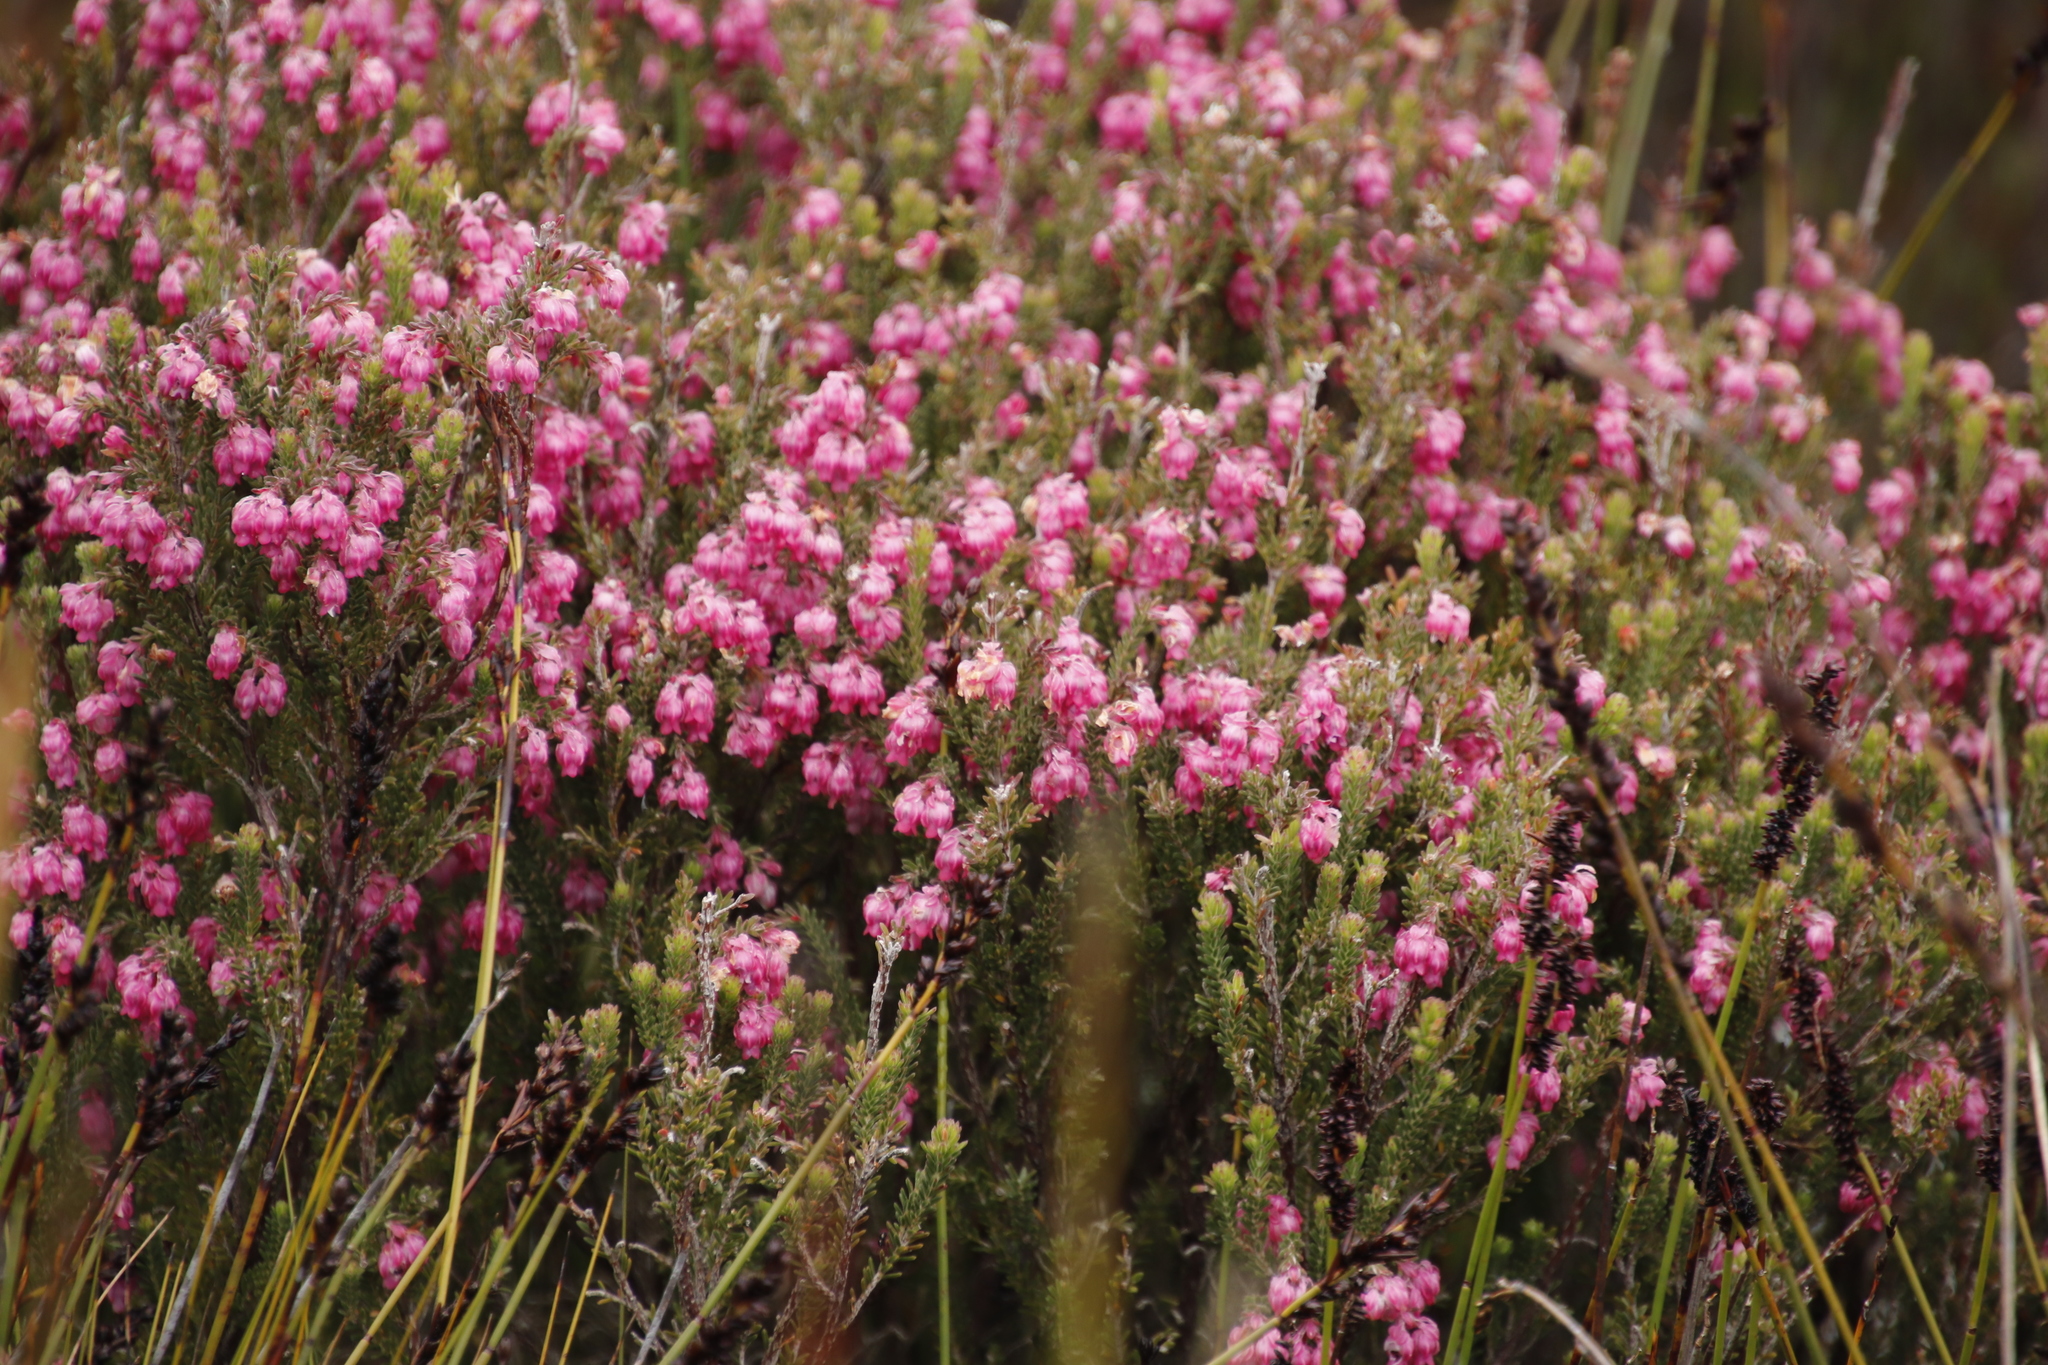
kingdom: Plantae
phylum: Tracheophyta
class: Magnoliopsida
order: Ericales
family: Ericaceae
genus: Erica
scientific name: Erica tegulifolia
